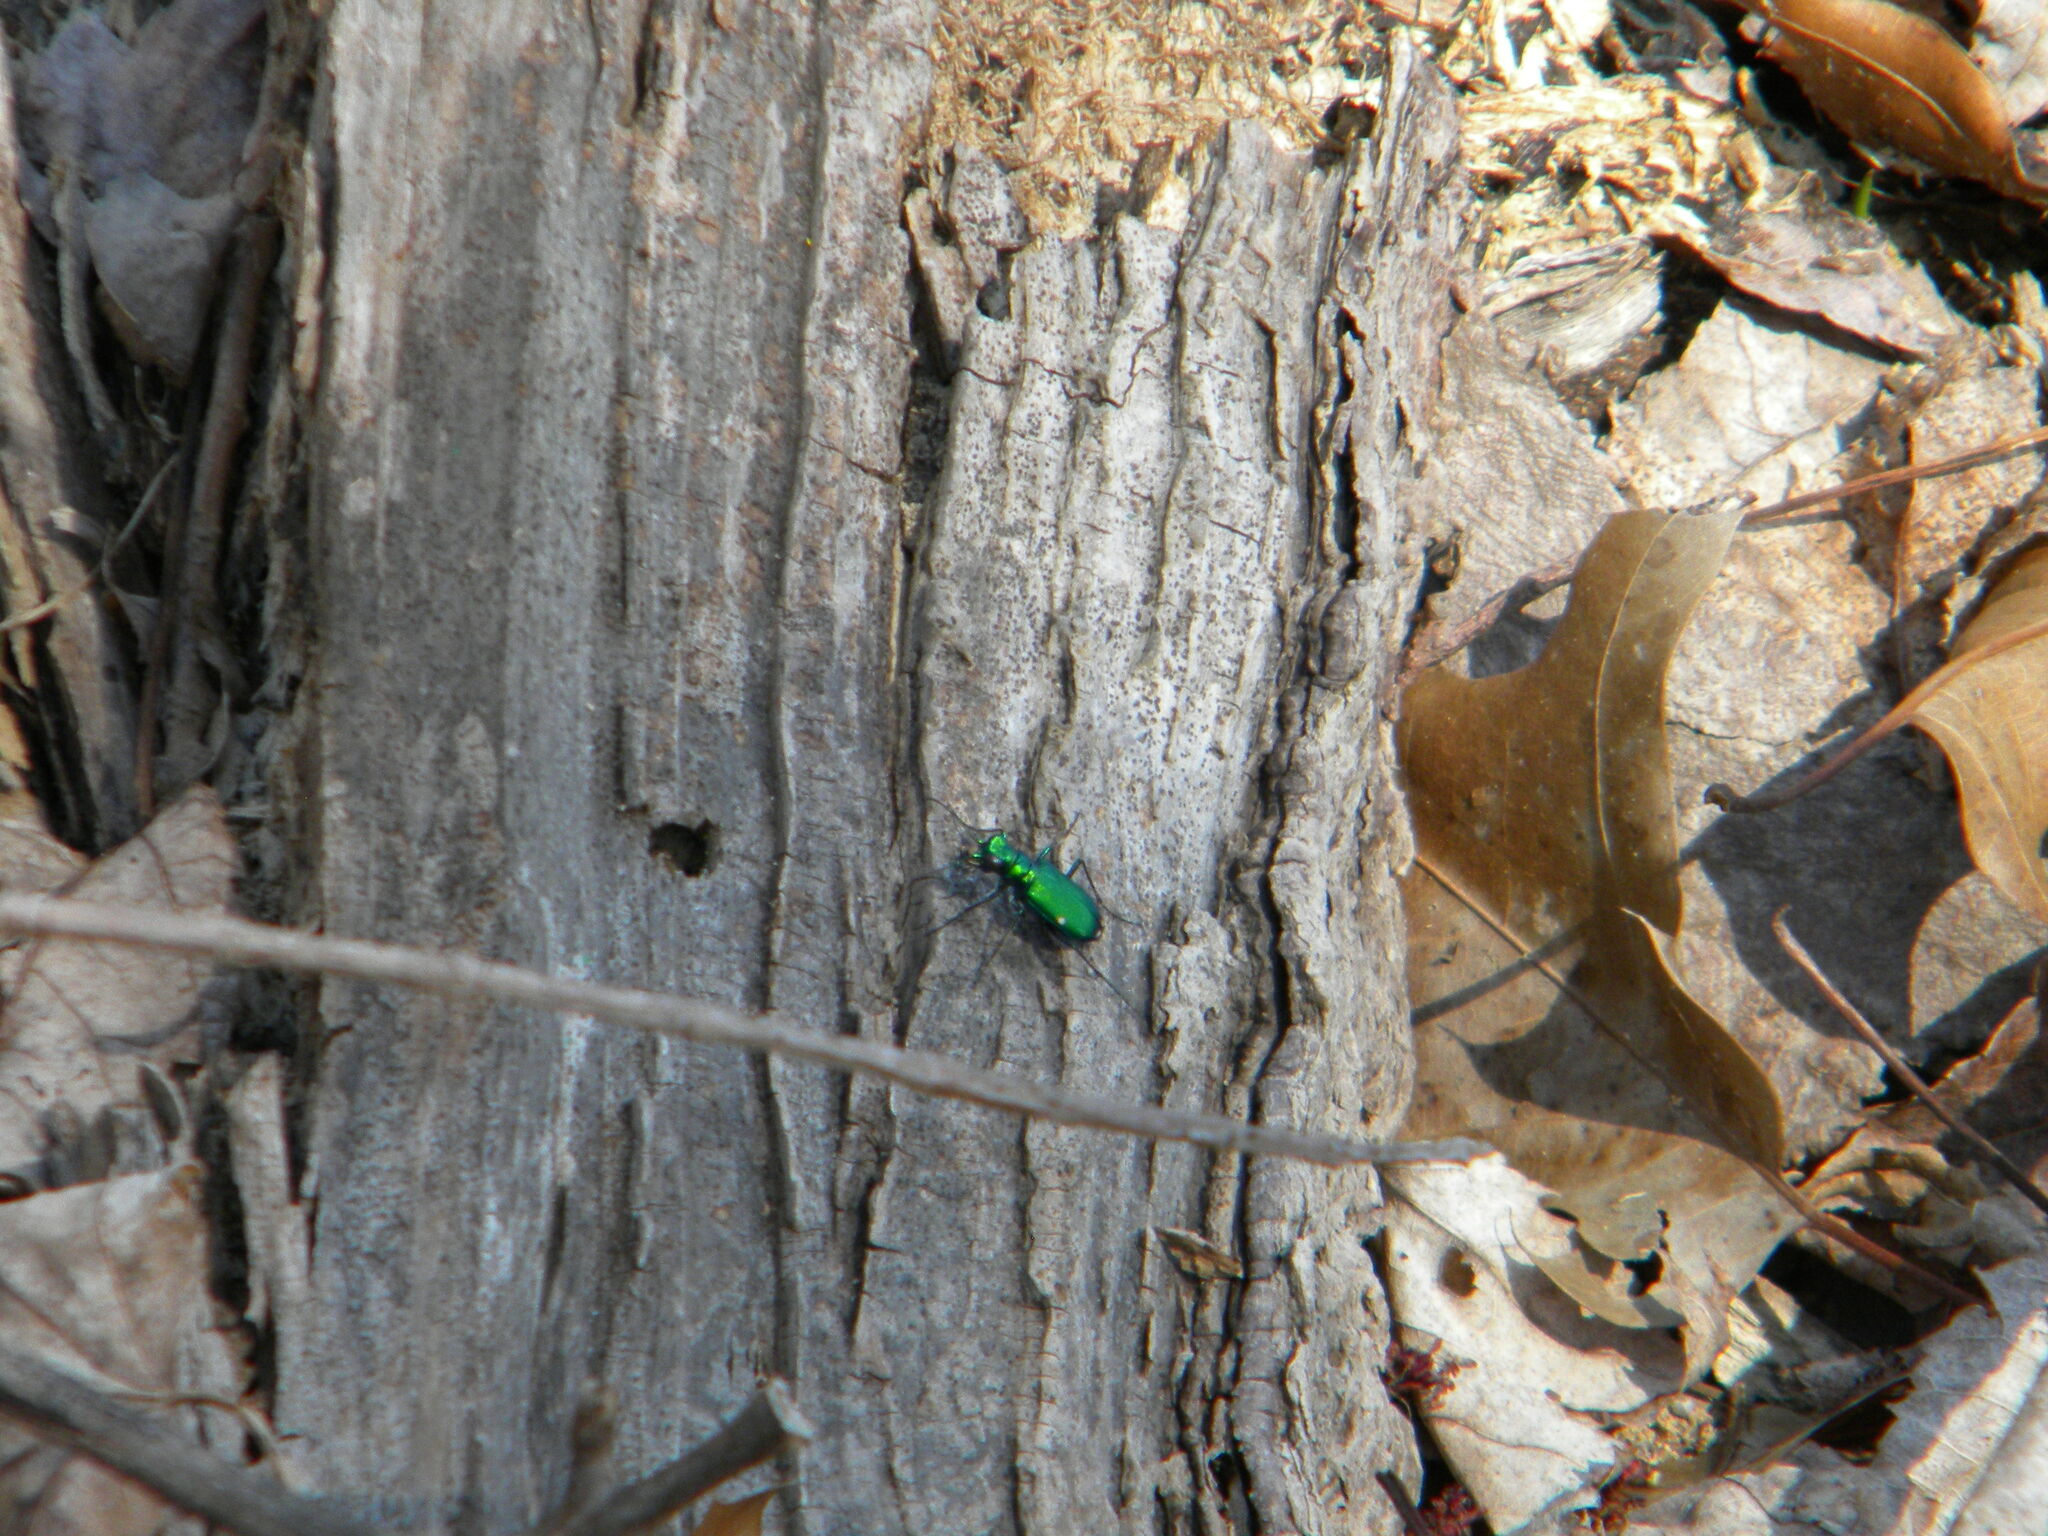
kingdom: Animalia
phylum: Arthropoda
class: Insecta
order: Coleoptera
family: Carabidae
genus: Cicindela
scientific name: Cicindela sexguttata
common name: Six-spotted tiger beetle
